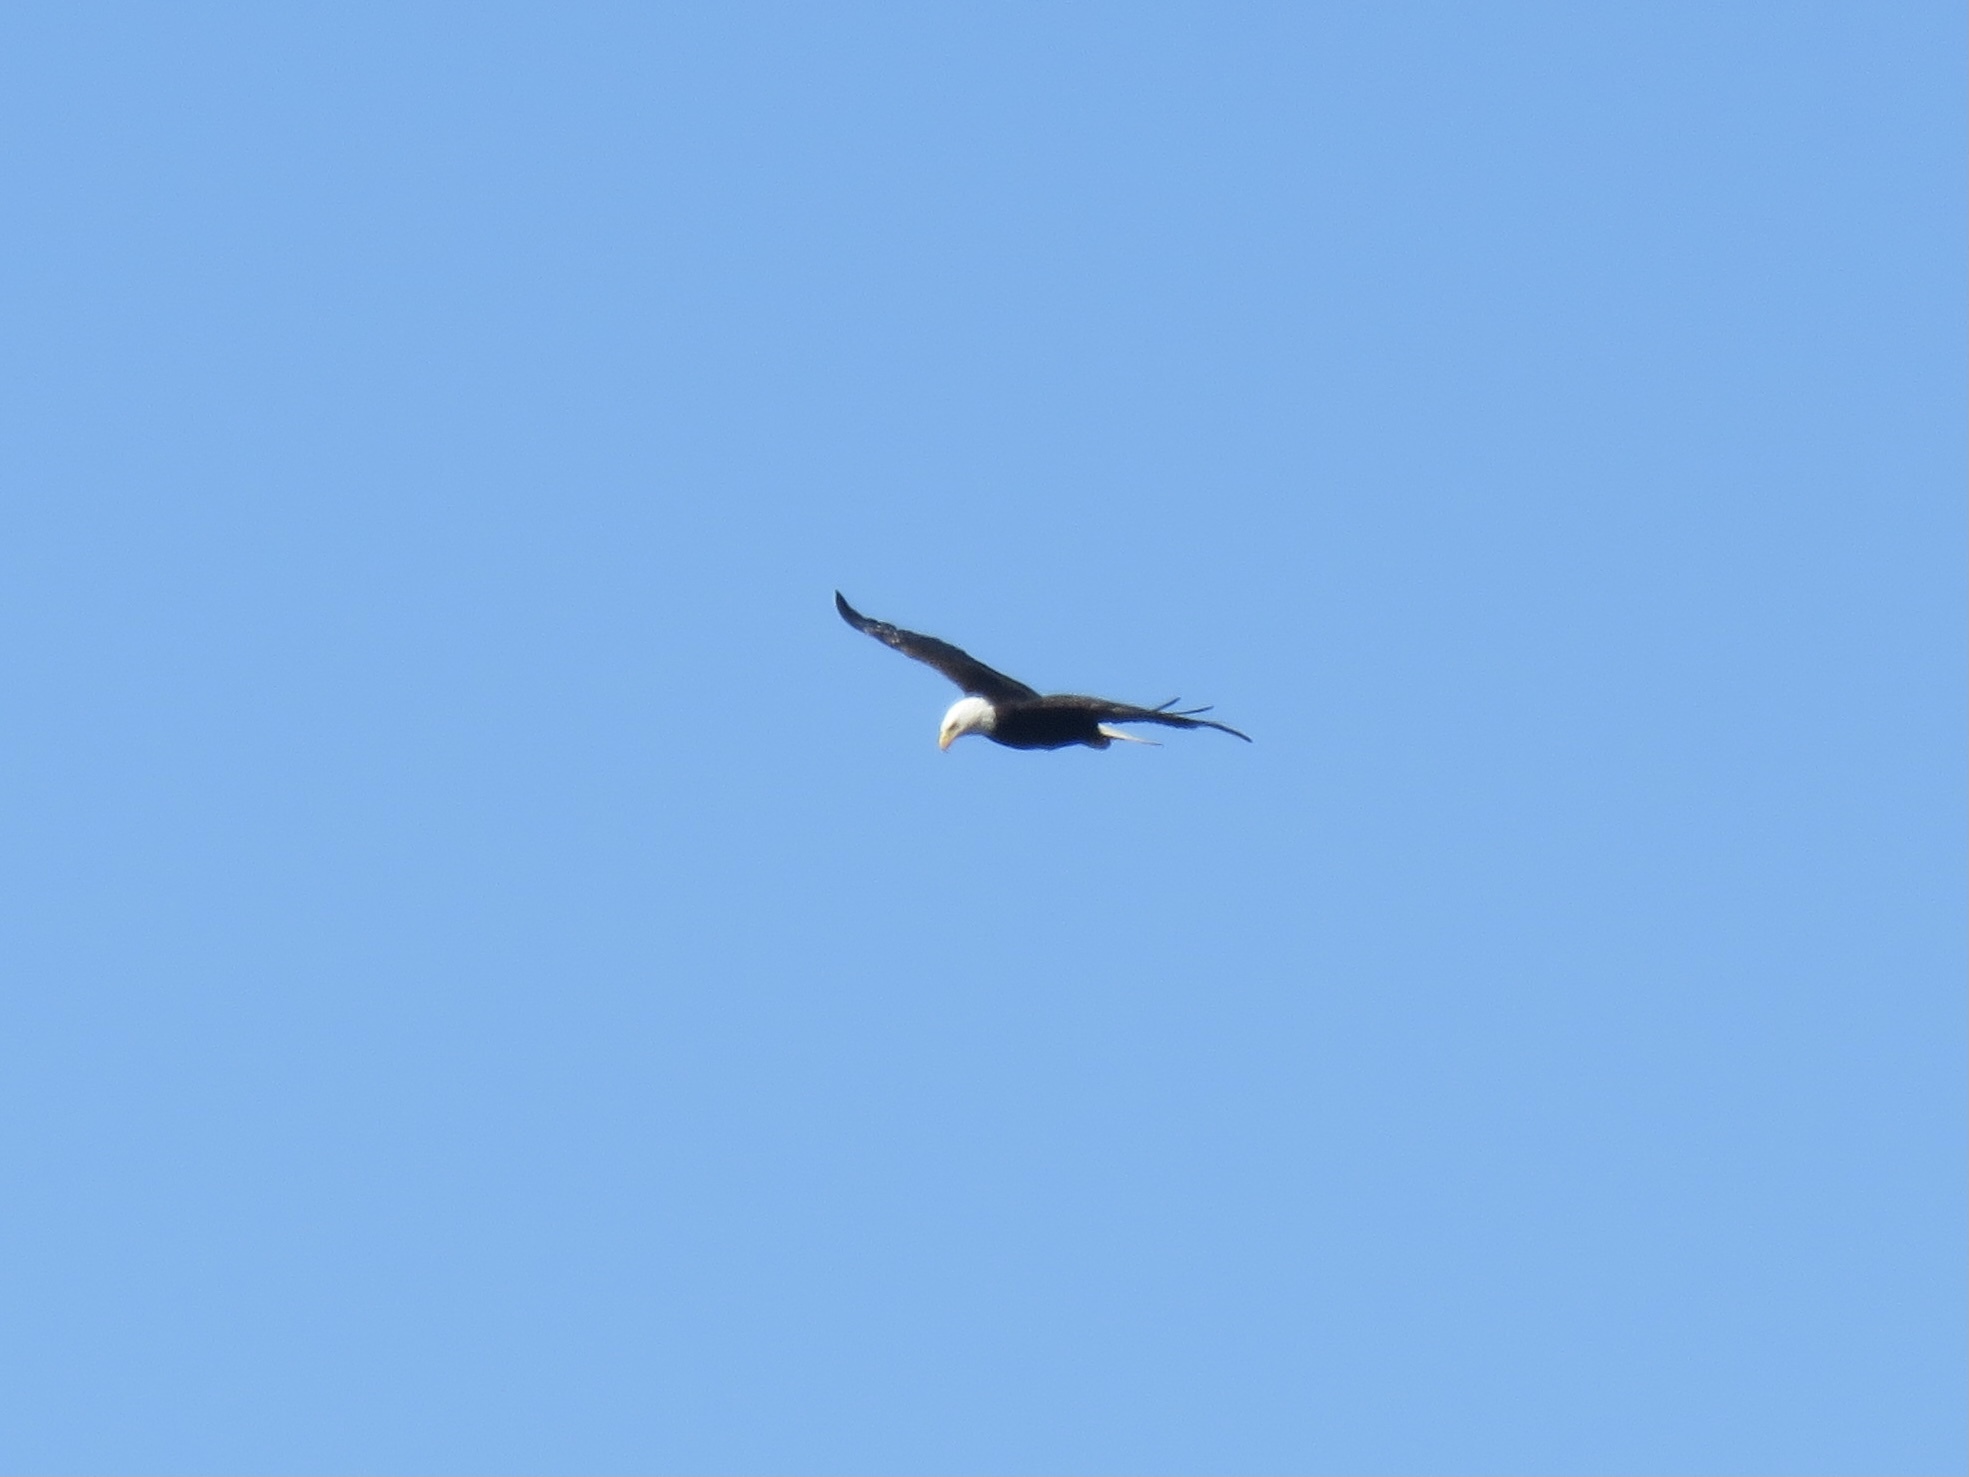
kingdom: Animalia
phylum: Chordata
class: Aves
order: Accipitriformes
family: Accipitridae
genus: Haliaeetus
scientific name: Haliaeetus leucocephalus
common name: Bald eagle
